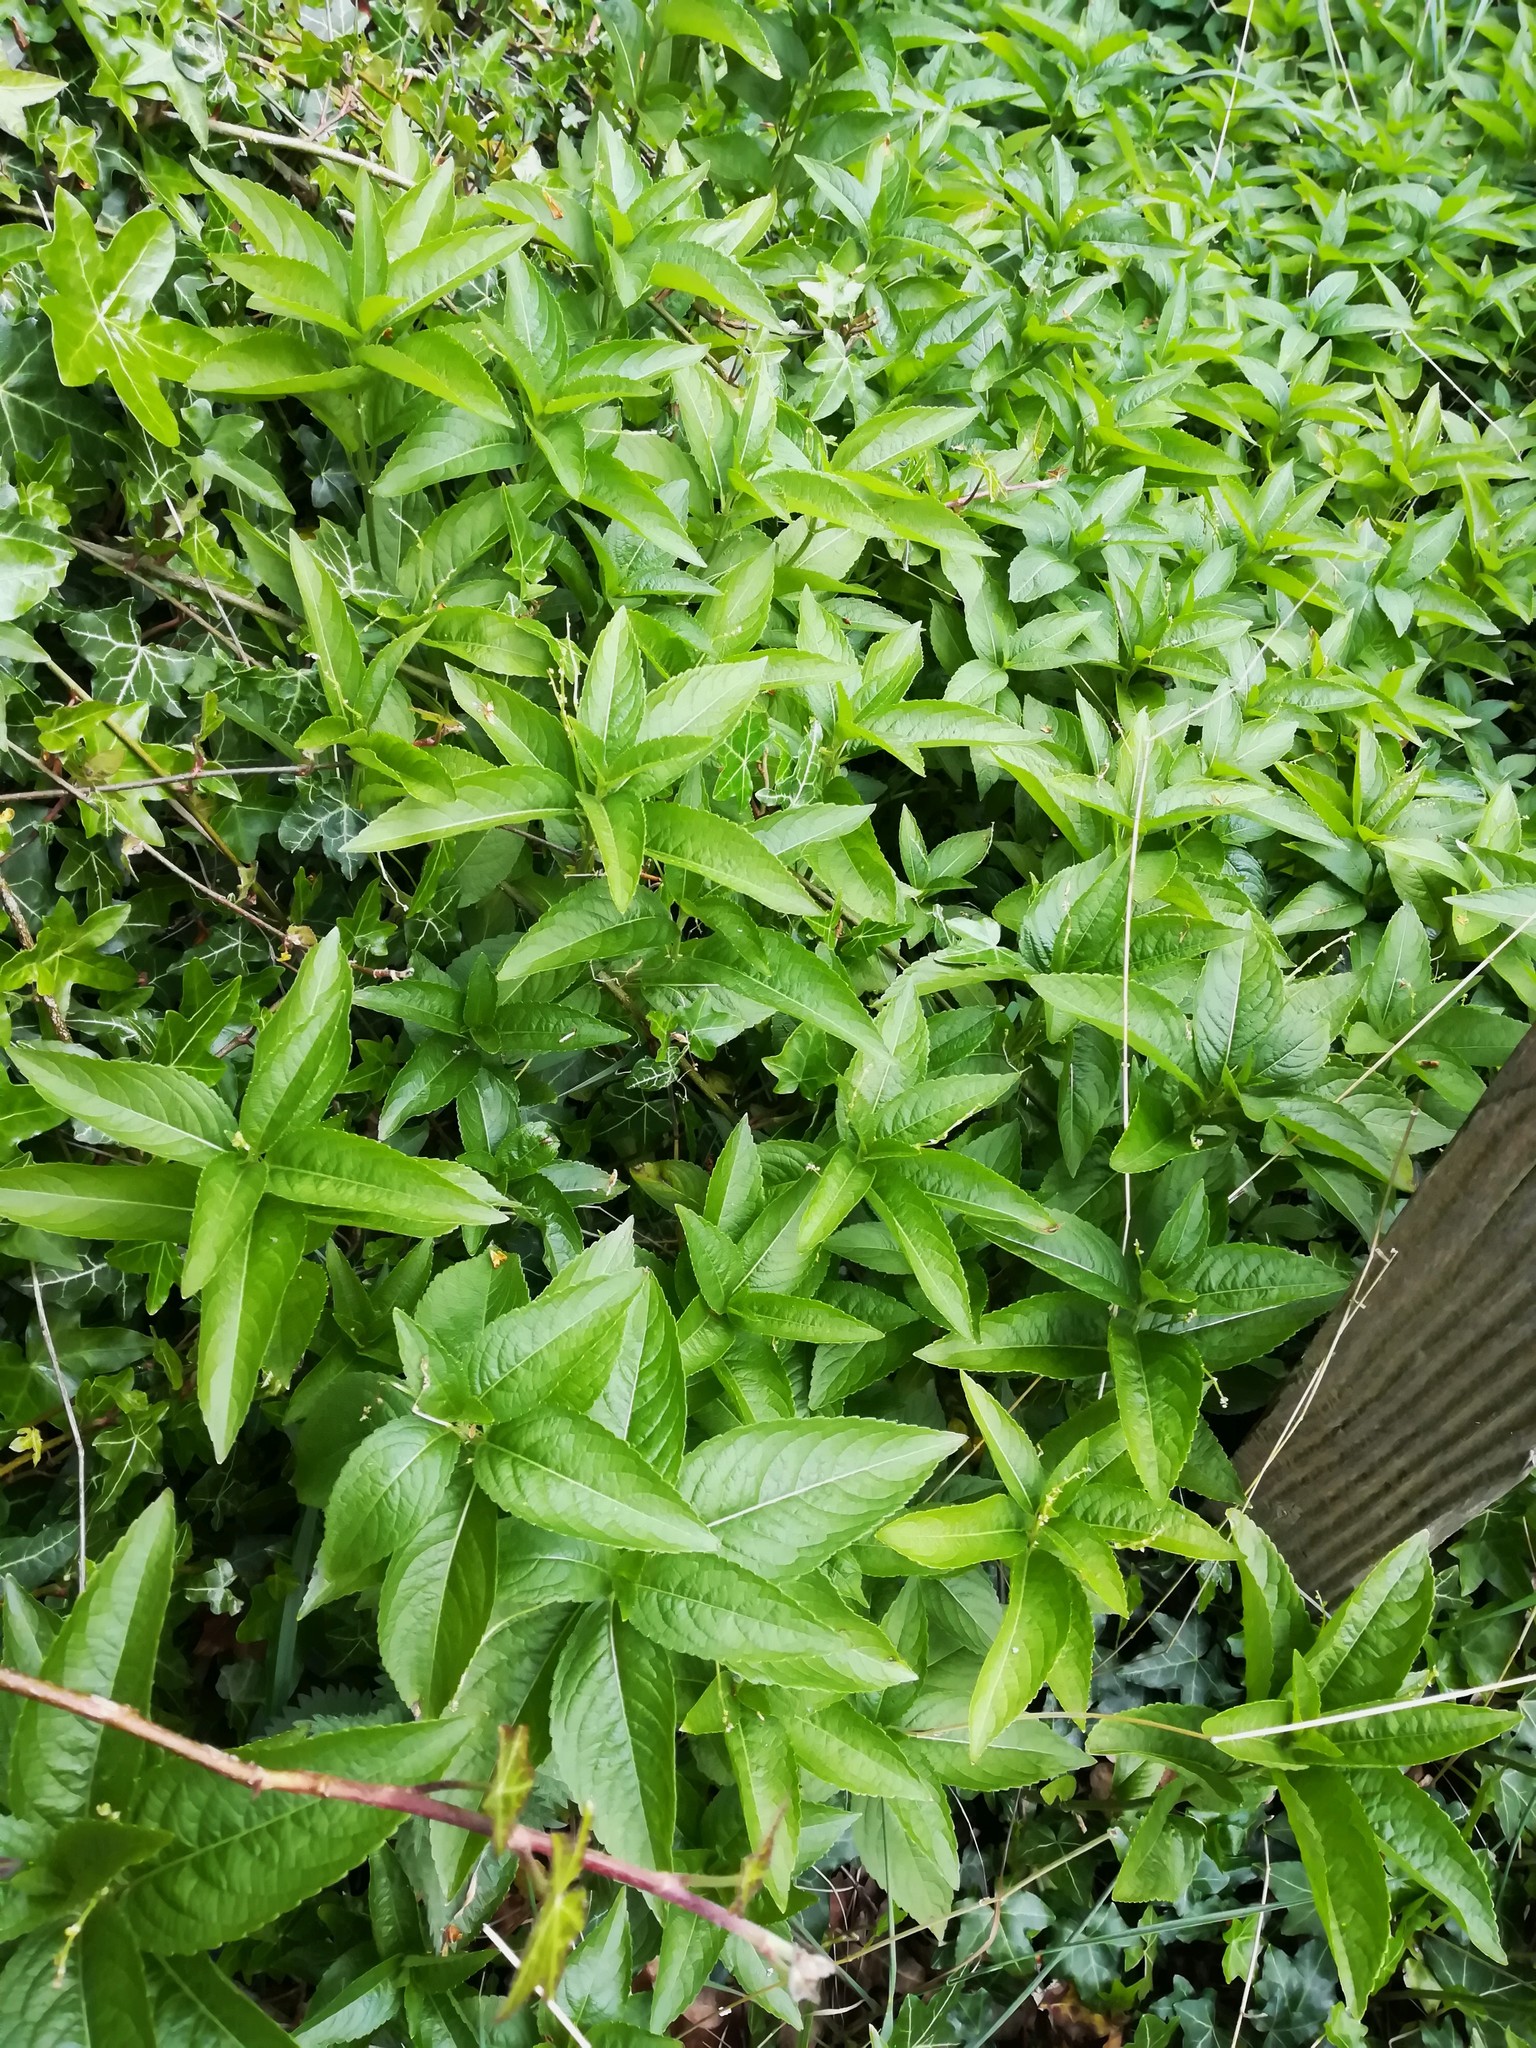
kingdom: Plantae
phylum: Tracheophyta
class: Magnoliopsida
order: Malpighiales
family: Euphorbiaceae
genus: Mercurialis
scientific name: Mercurialis perennis
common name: Dog mercury
